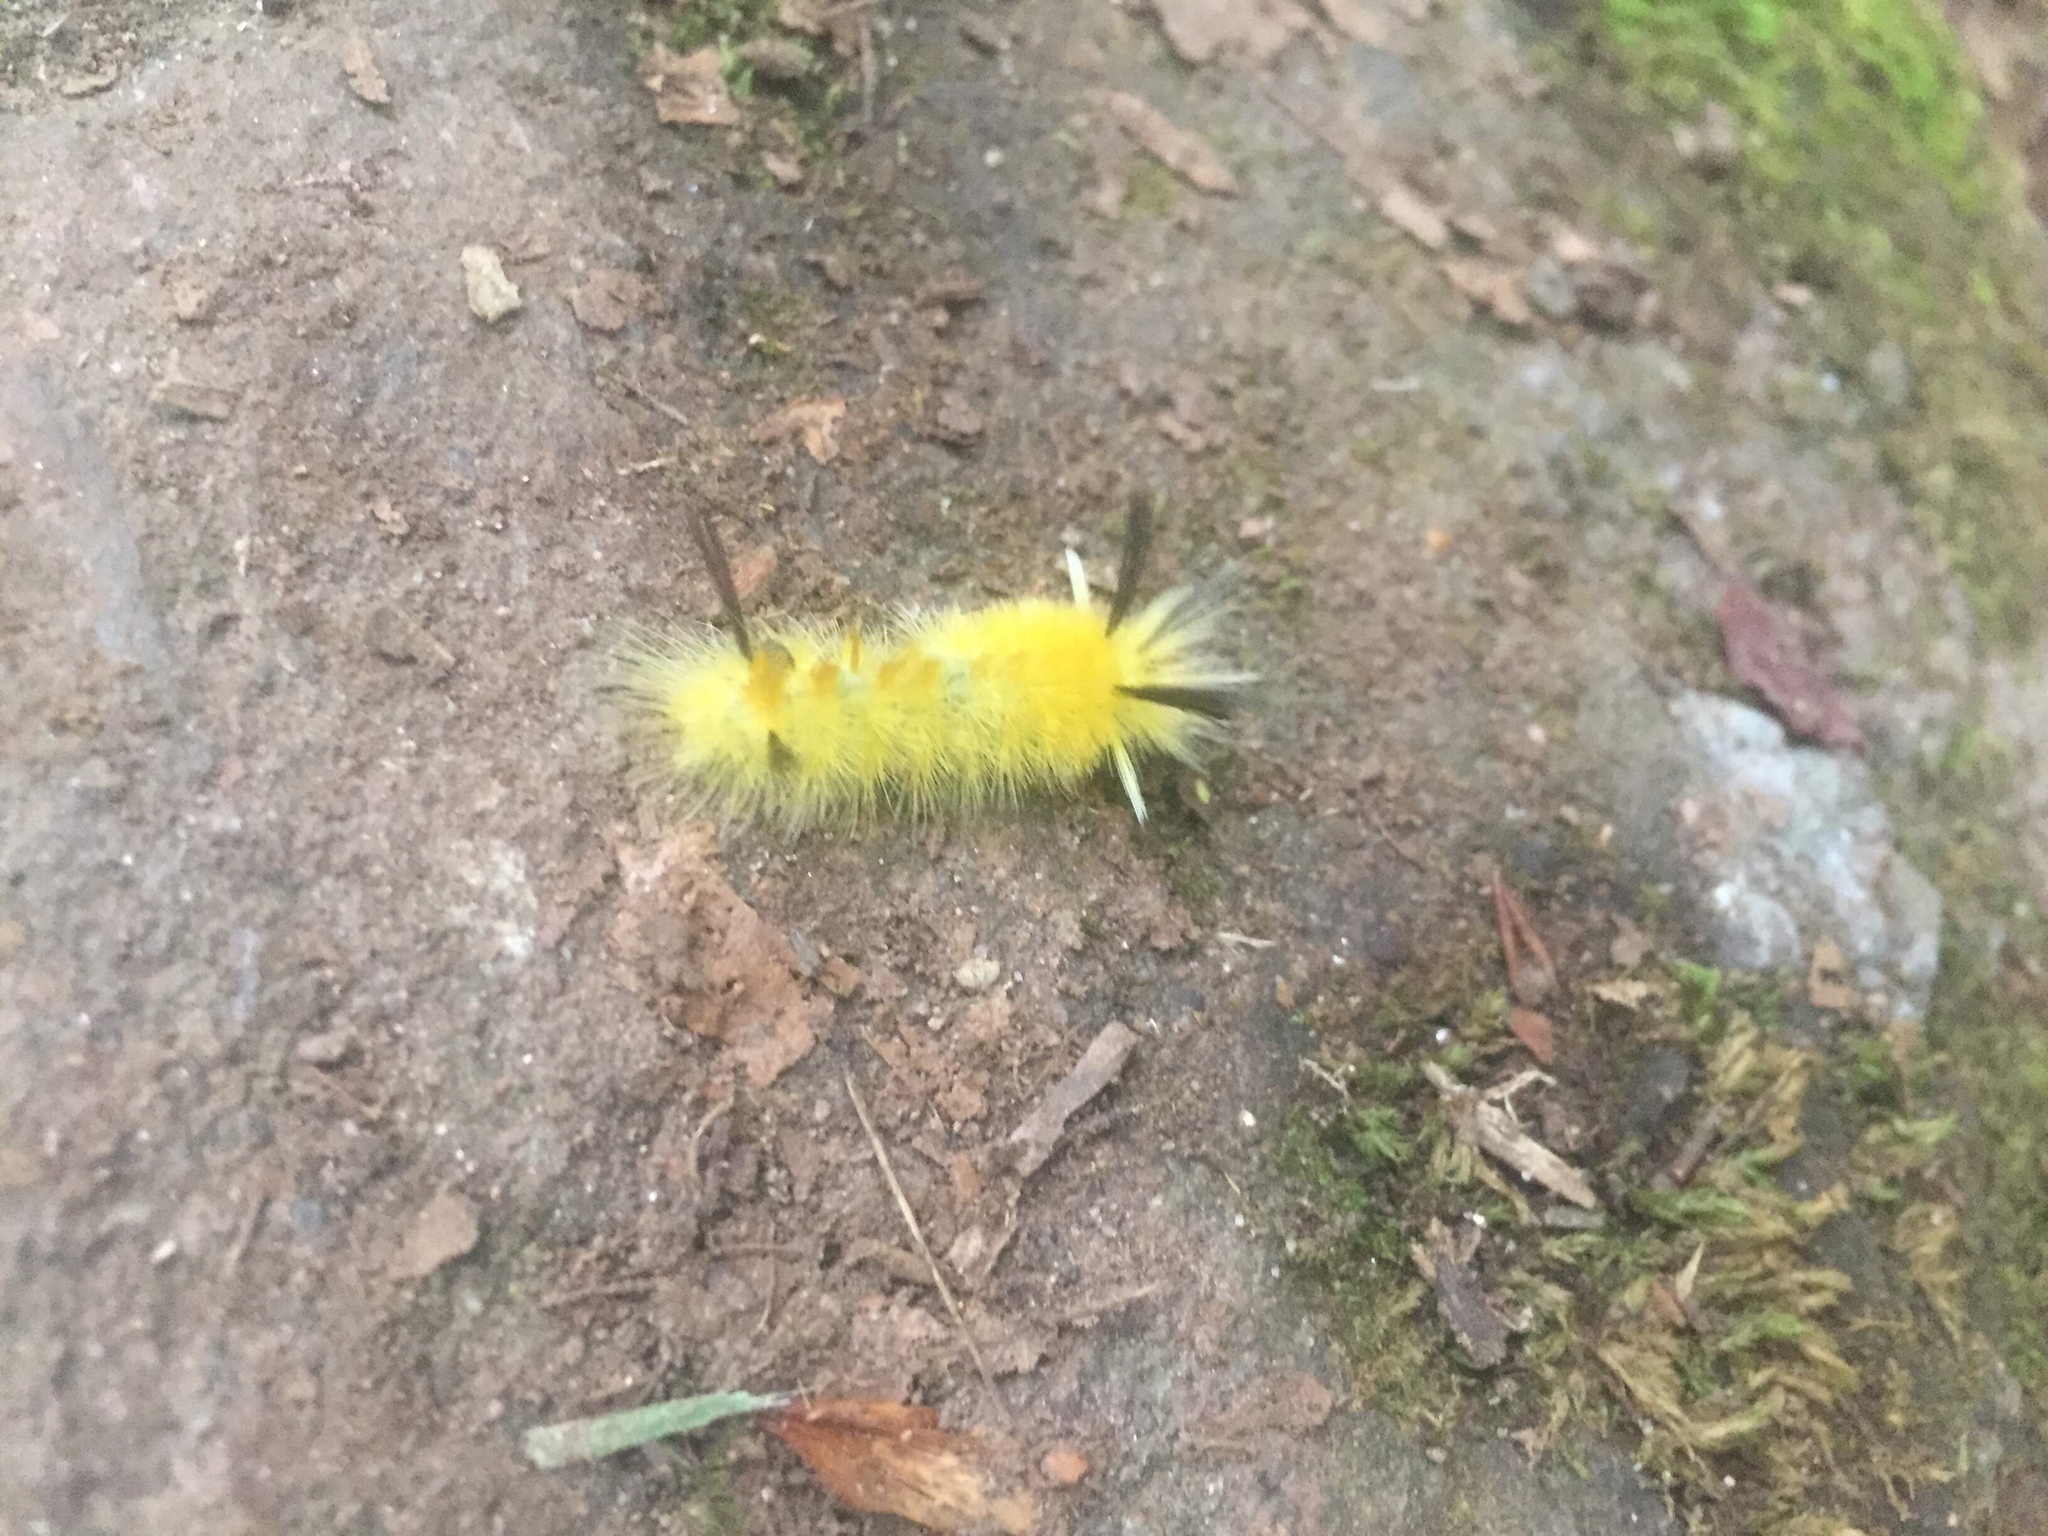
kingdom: Animalia
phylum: Arthropoda
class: Insecta
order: Lepidoptera
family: Erebidae
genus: Halysidota
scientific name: Halysidota tessellaris
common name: Banded tussock moth
